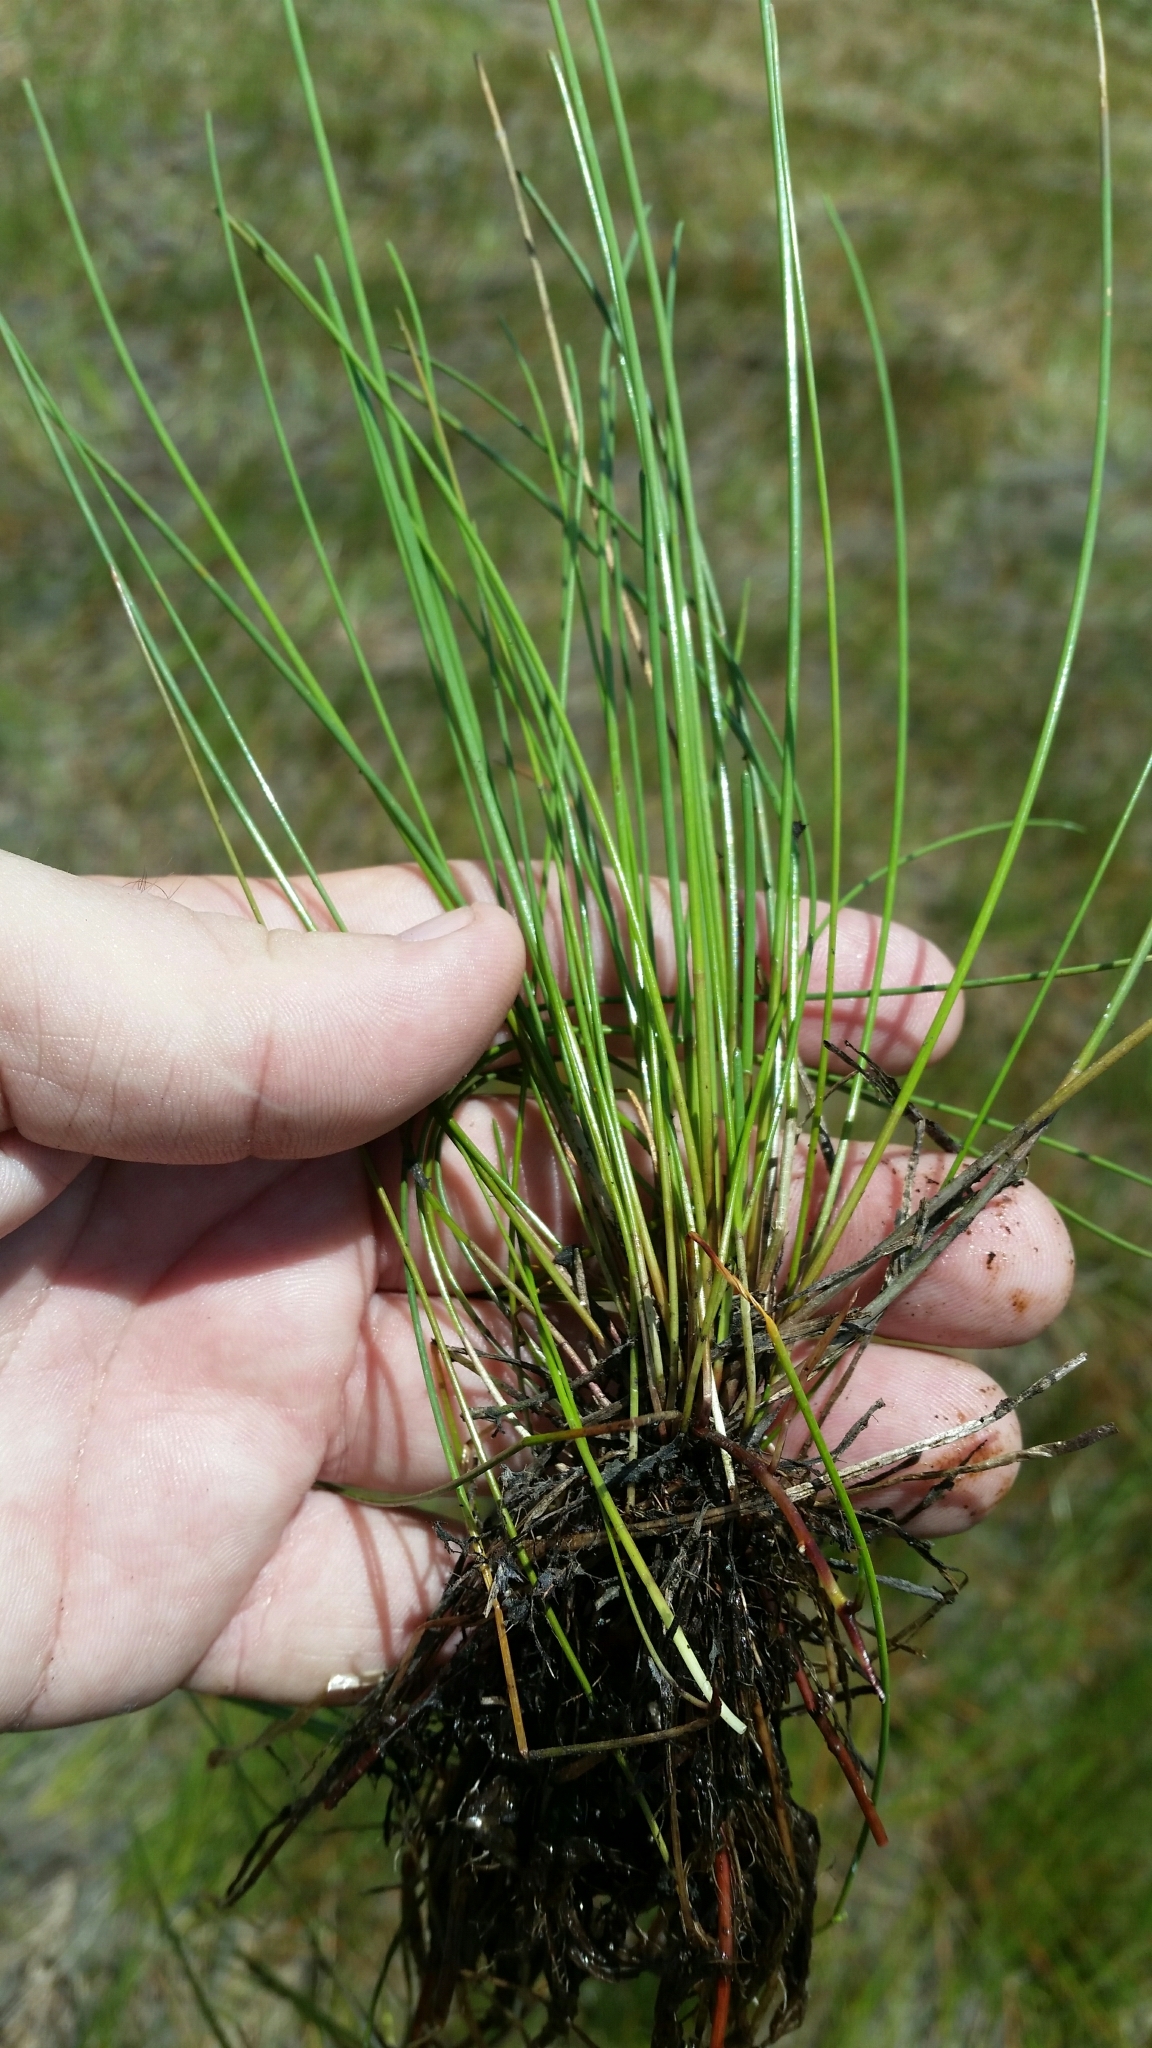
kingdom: Plantae
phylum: Tracheophyta
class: Liliopsida
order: Poales
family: Cyperaceae
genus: Eleocharis
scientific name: Eleocharis elongata
